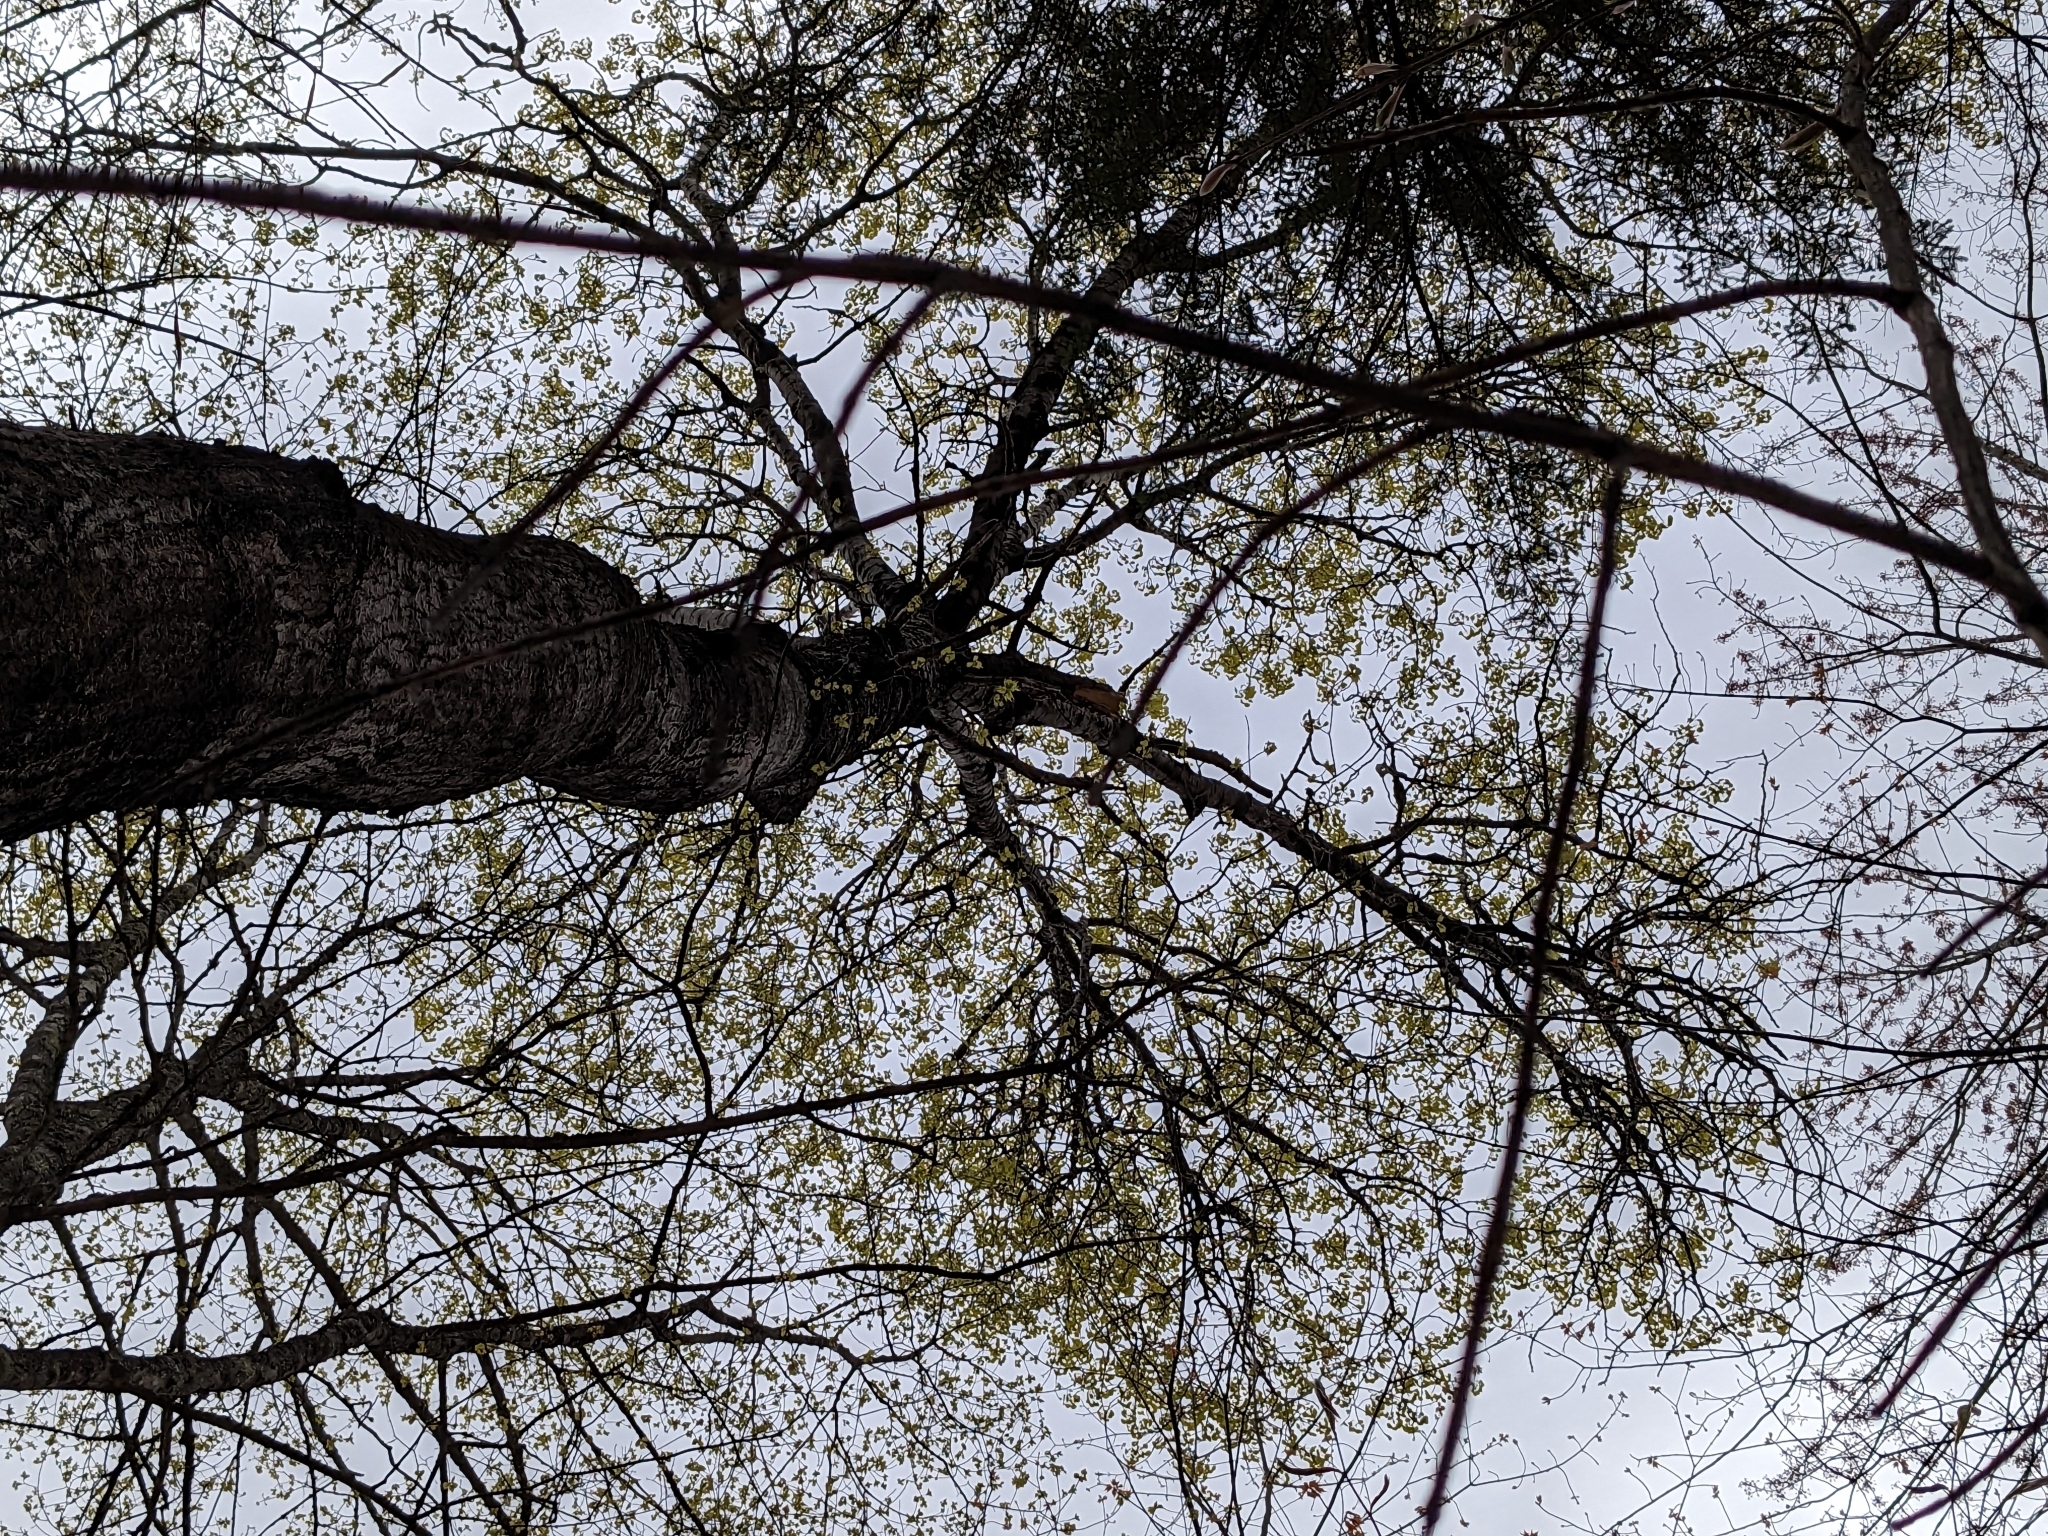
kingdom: Plantae
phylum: Tracheophyta
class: Magnoliopsida
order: Malpighiales
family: Salicaceae
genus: Populus
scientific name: Populus tremuloides
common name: Quaking aspen
